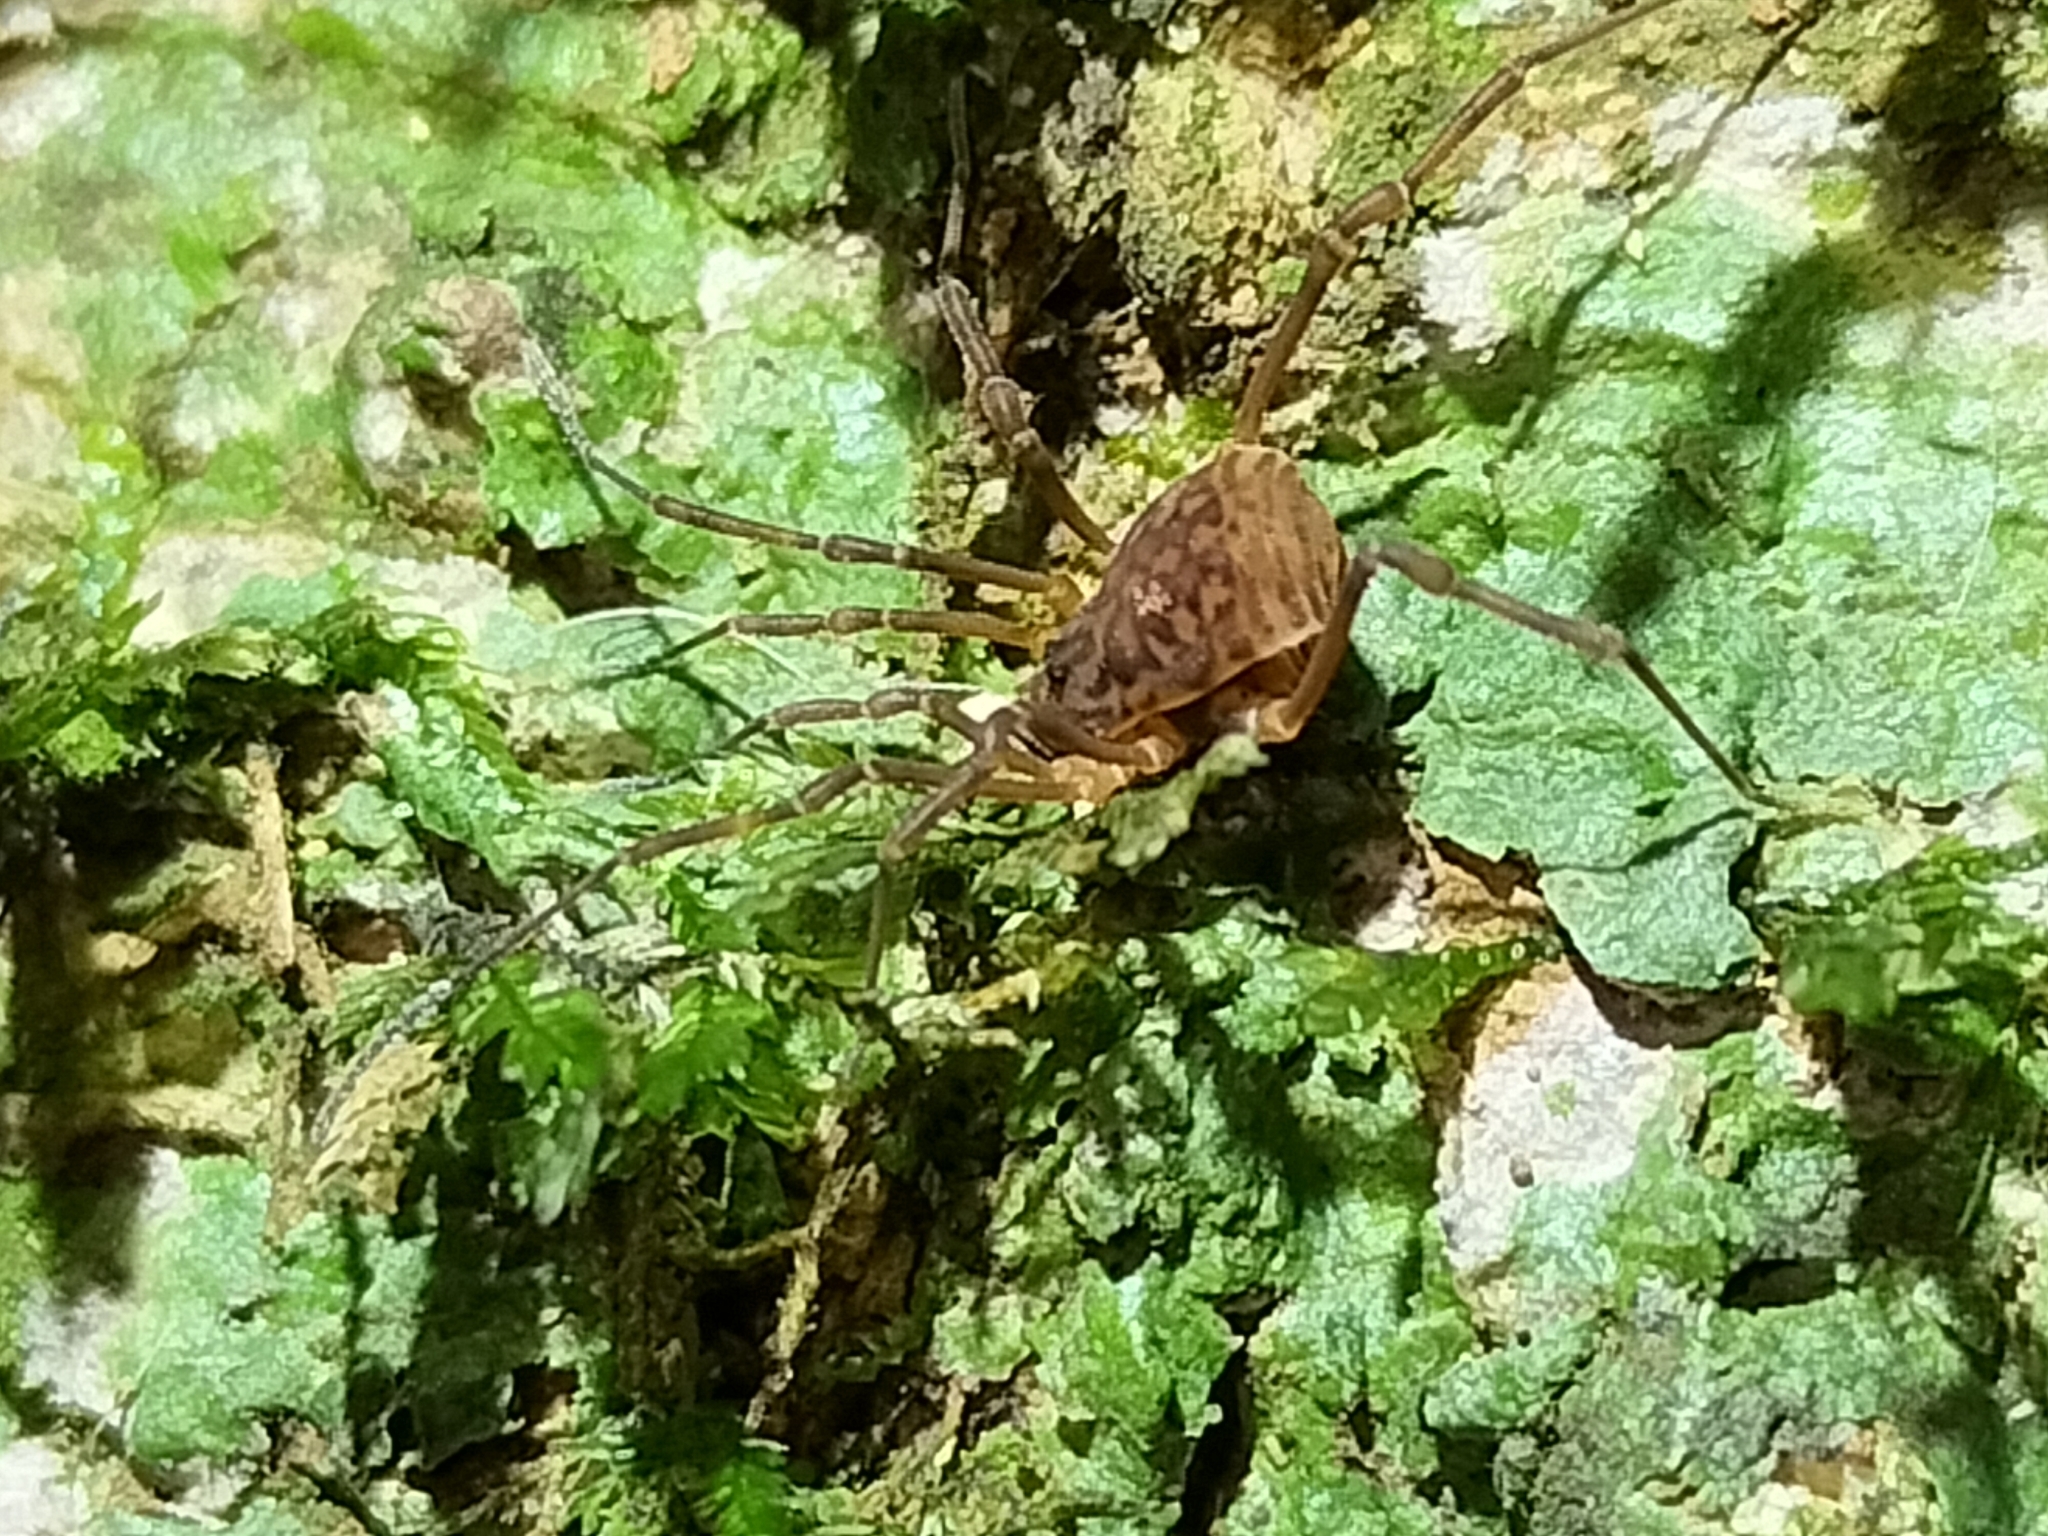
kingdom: Animalia
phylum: Arthropoda
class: Arachnida
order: Opiliones
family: Assamiidae
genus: Cardwella
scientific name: Cardwella atar
